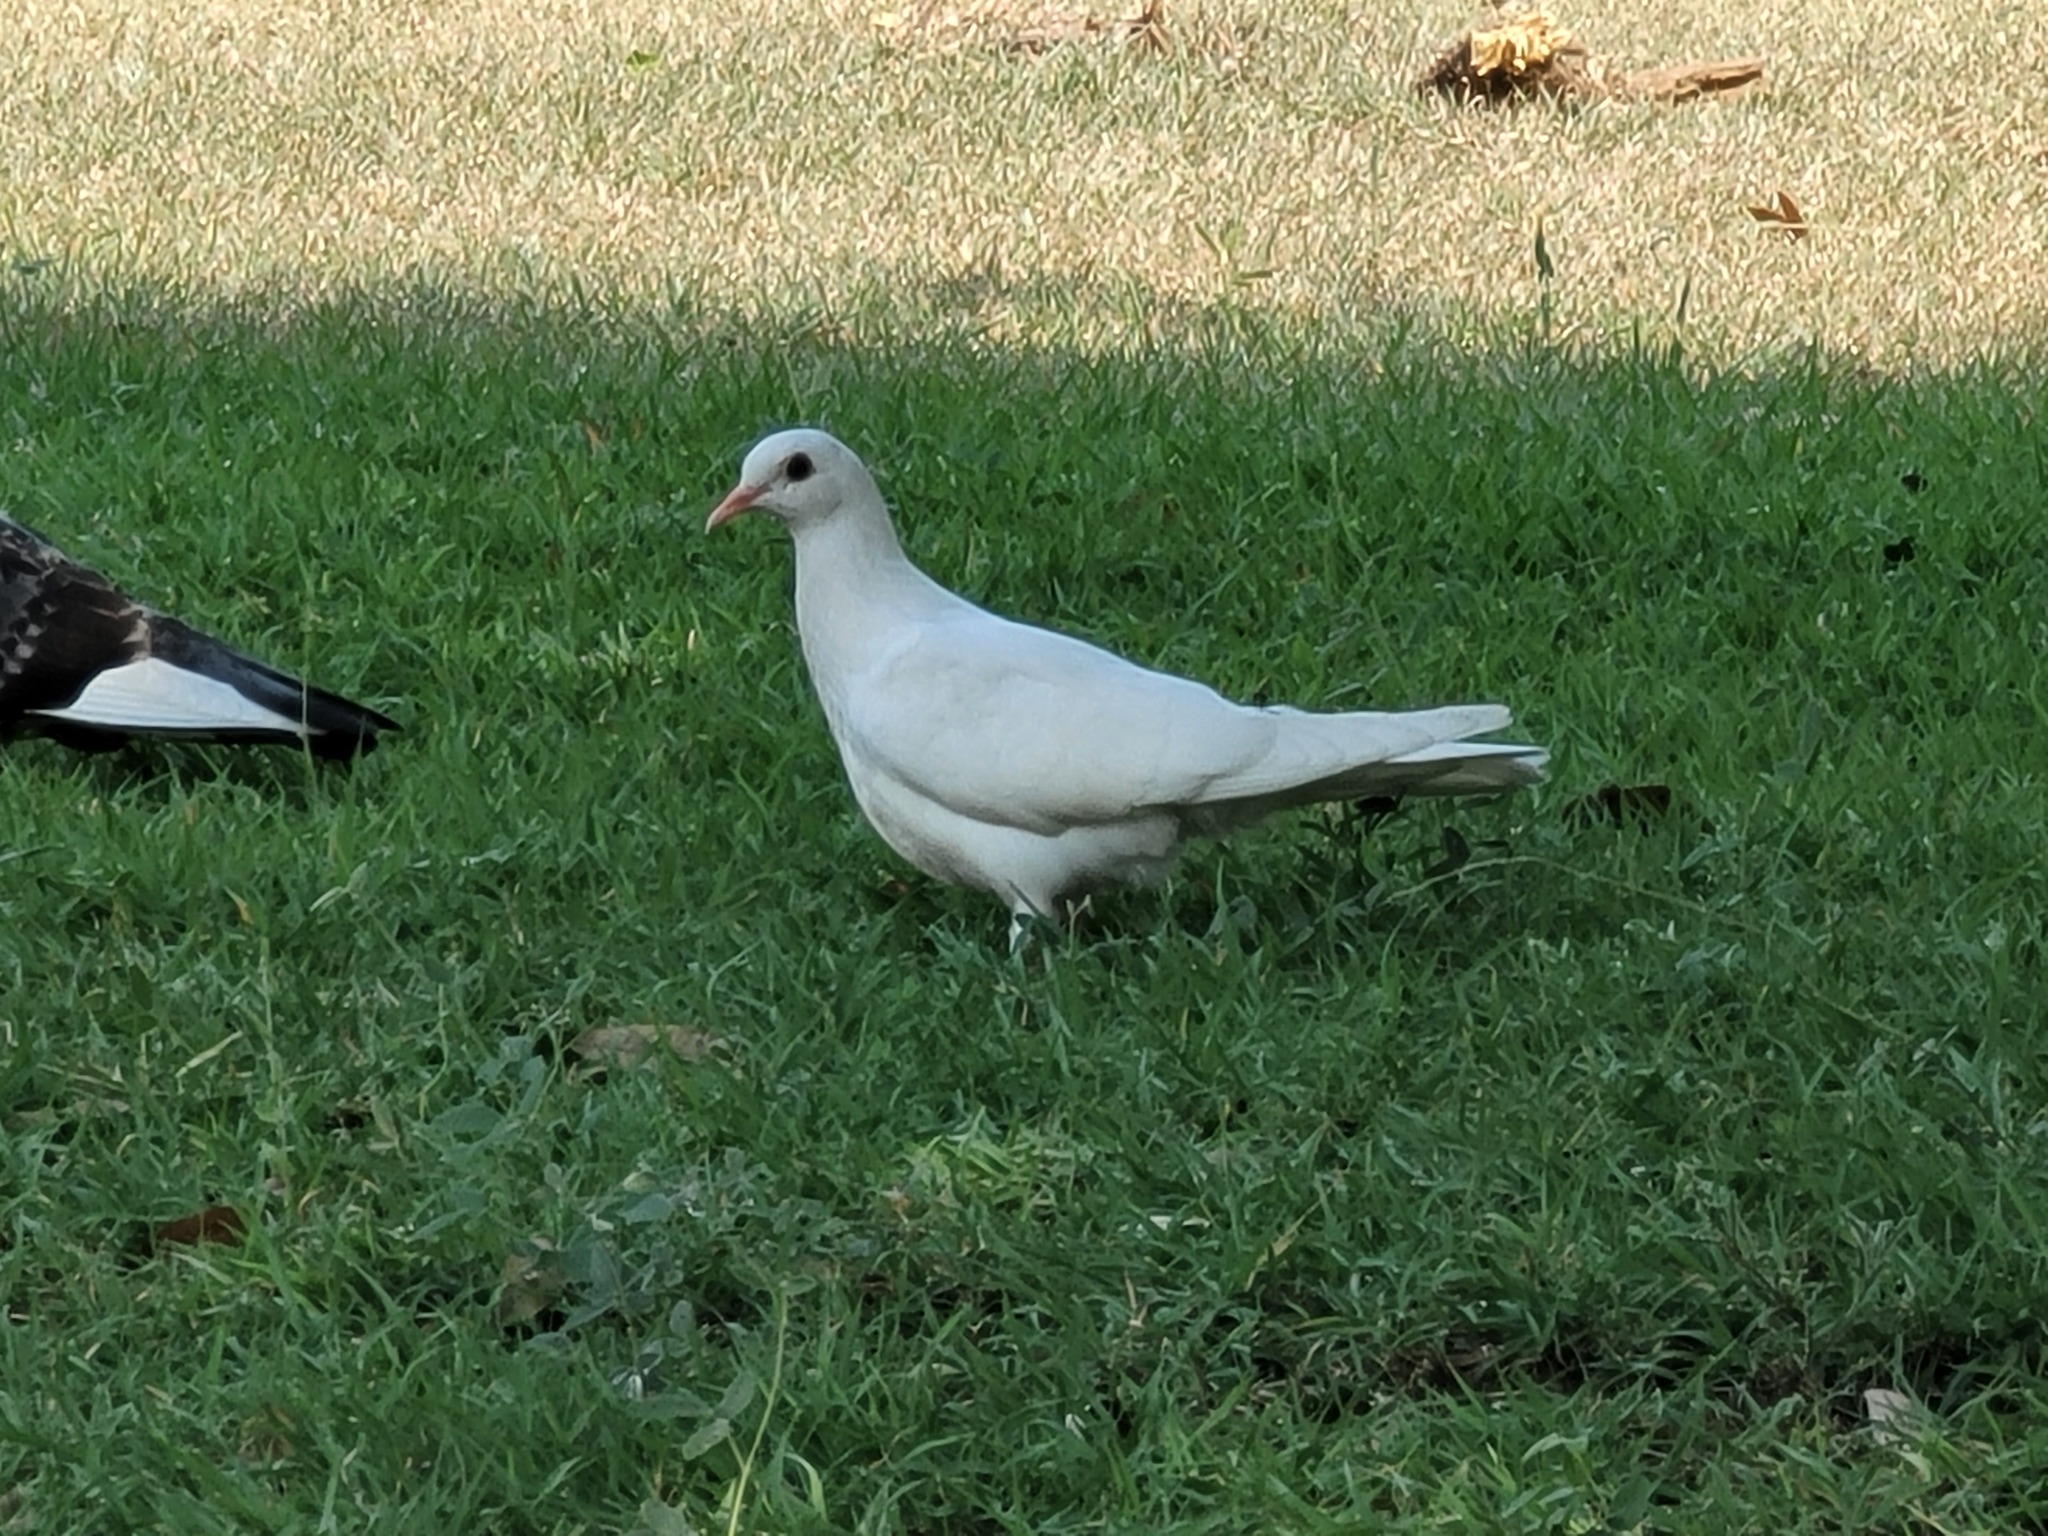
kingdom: Animalia
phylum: Chordata
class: Aves
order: Columbiformes
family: Columbidae
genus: Columba
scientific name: Columba livia
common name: Rock pigeon
